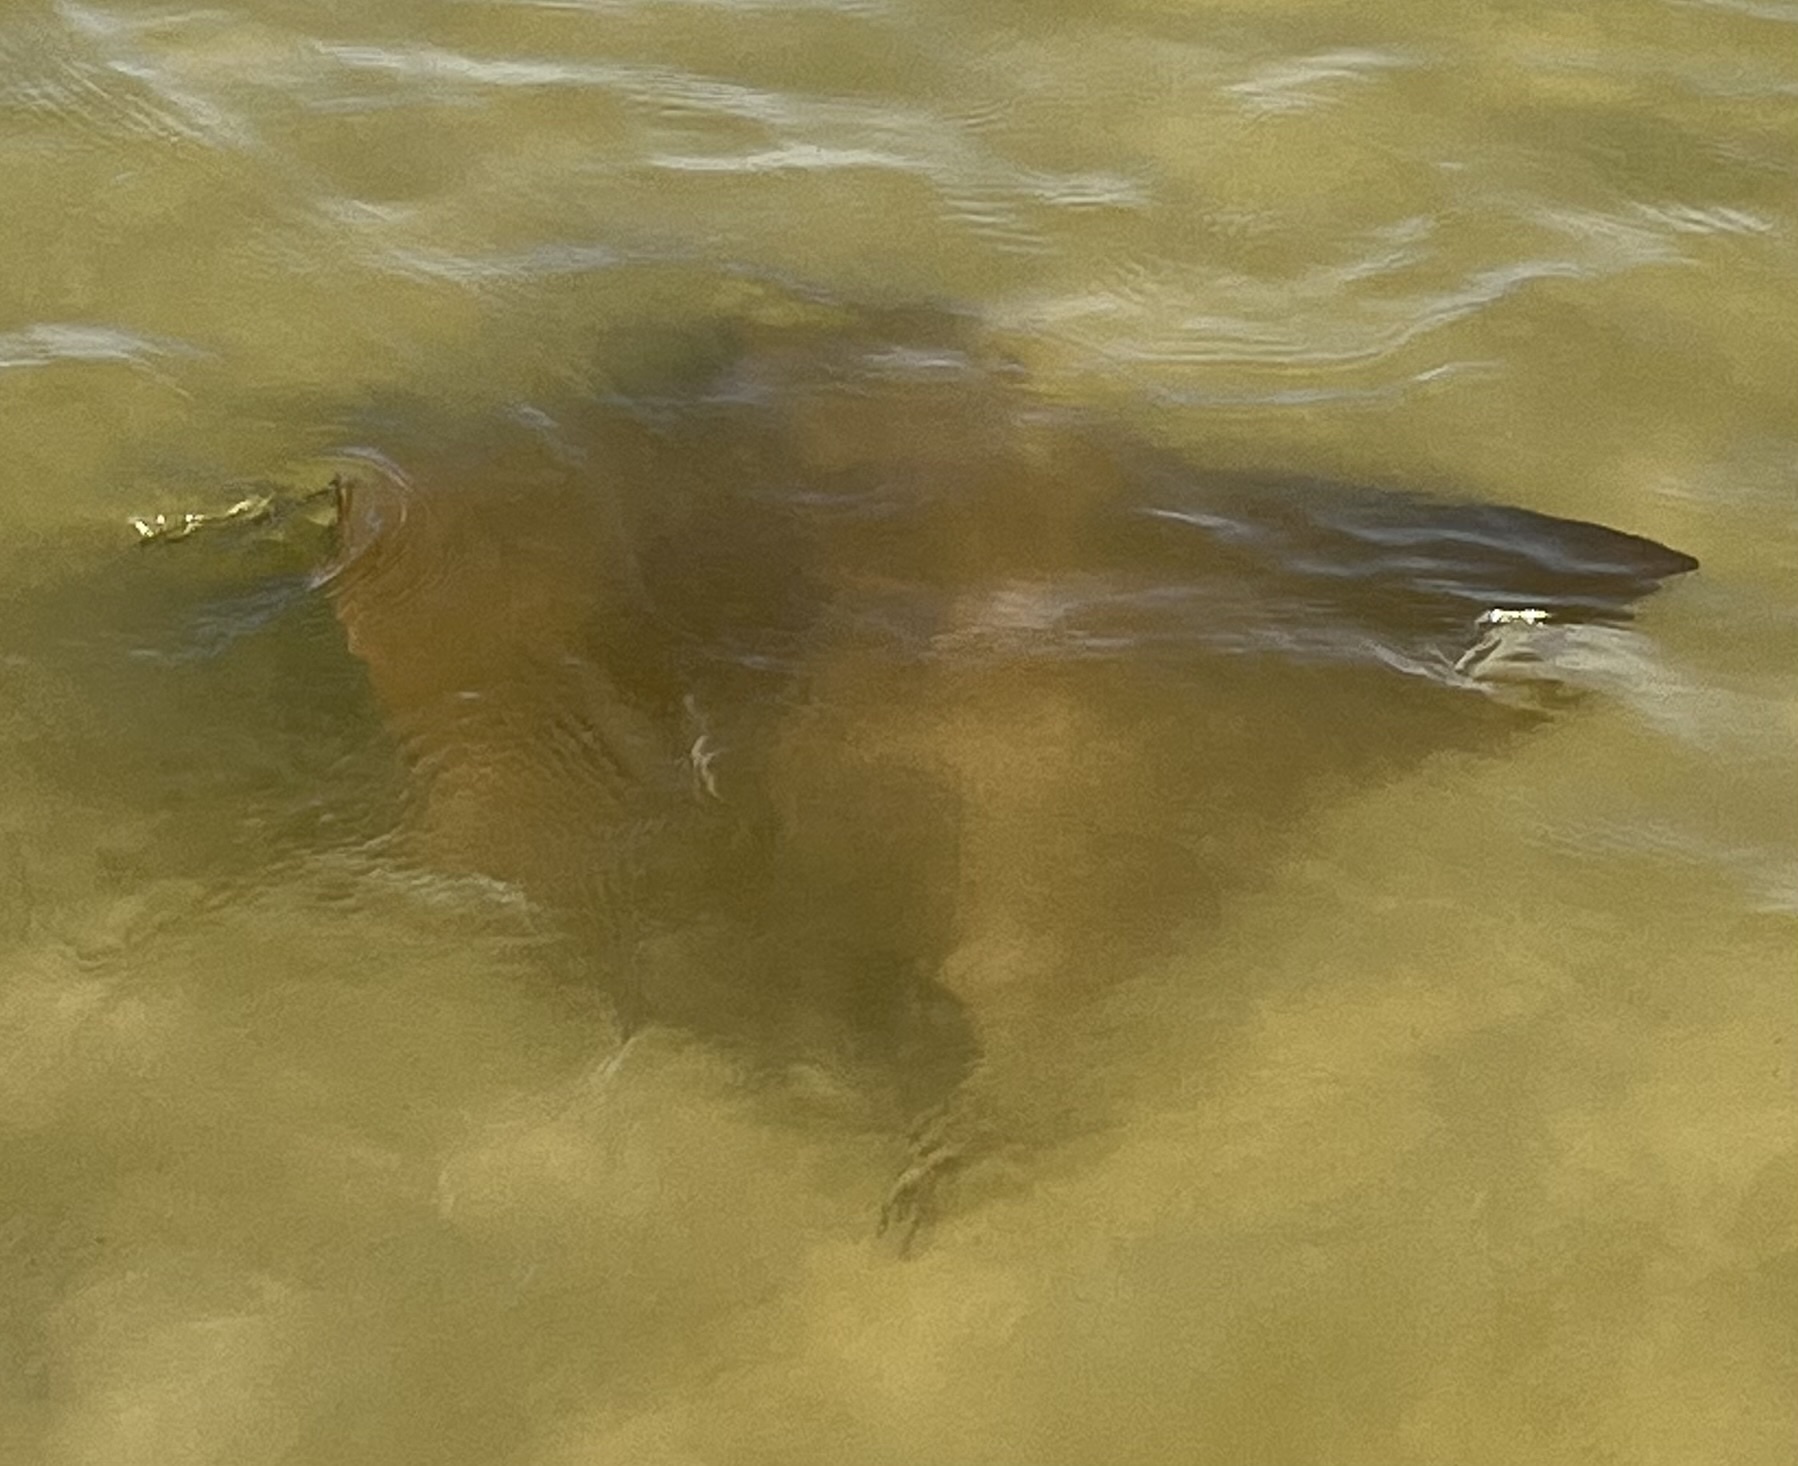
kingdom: Animalia
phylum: Chordata
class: Elasmobranchii
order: Myliobatiformes
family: Myliobatidae
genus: Rhinoptera
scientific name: Rhinoptera bonasus
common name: Cownose ray
